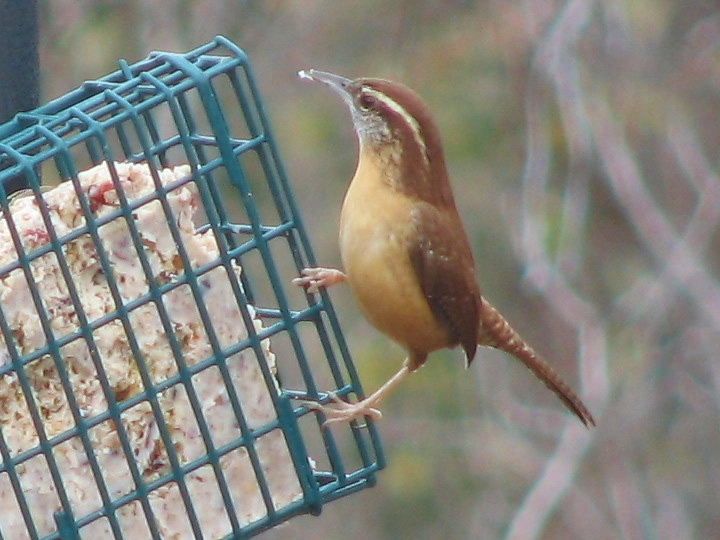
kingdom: Animalia
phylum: Chordata
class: Aves
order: Passeriformes
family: Troglodytidae
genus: Thryothorus
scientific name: Thryothorus ludovicianus
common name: Carolina wren
